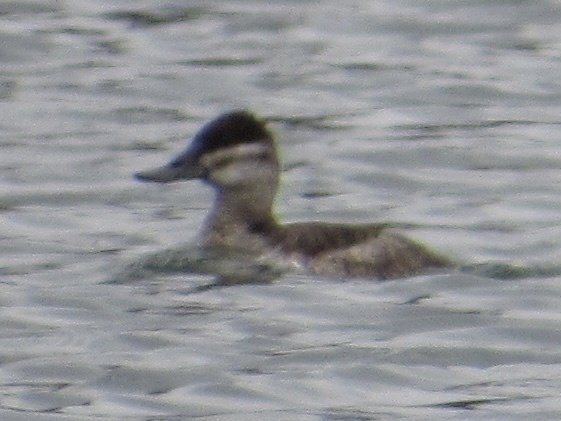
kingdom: Animalia
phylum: Chordata
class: Aves
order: Anseriformes
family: Anatidae
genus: Oxyura
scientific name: Oxyura jamaicensis
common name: Ruddy duck
